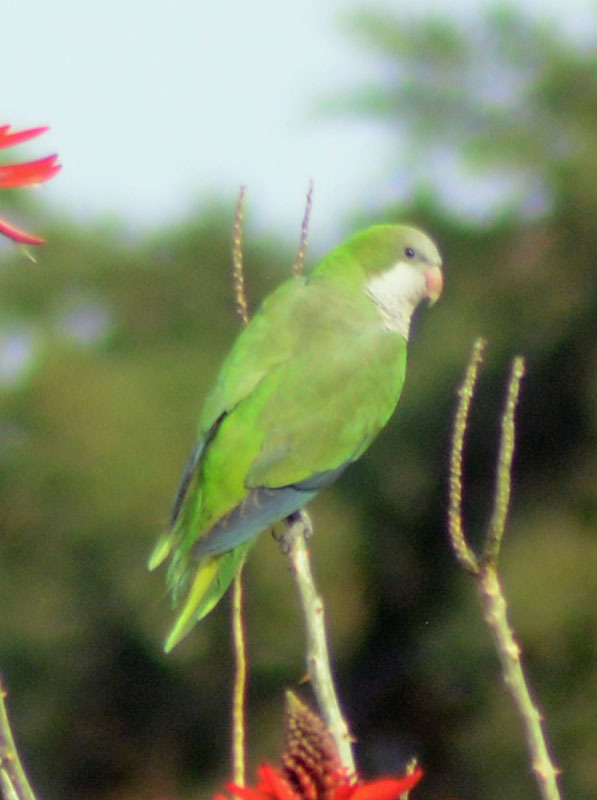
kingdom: Animalia
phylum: Chordata
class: Aves
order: Psittaciformes
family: Psittacidae
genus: Myiopsitta
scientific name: Myiopsitta monachus
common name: Monk parakeet
